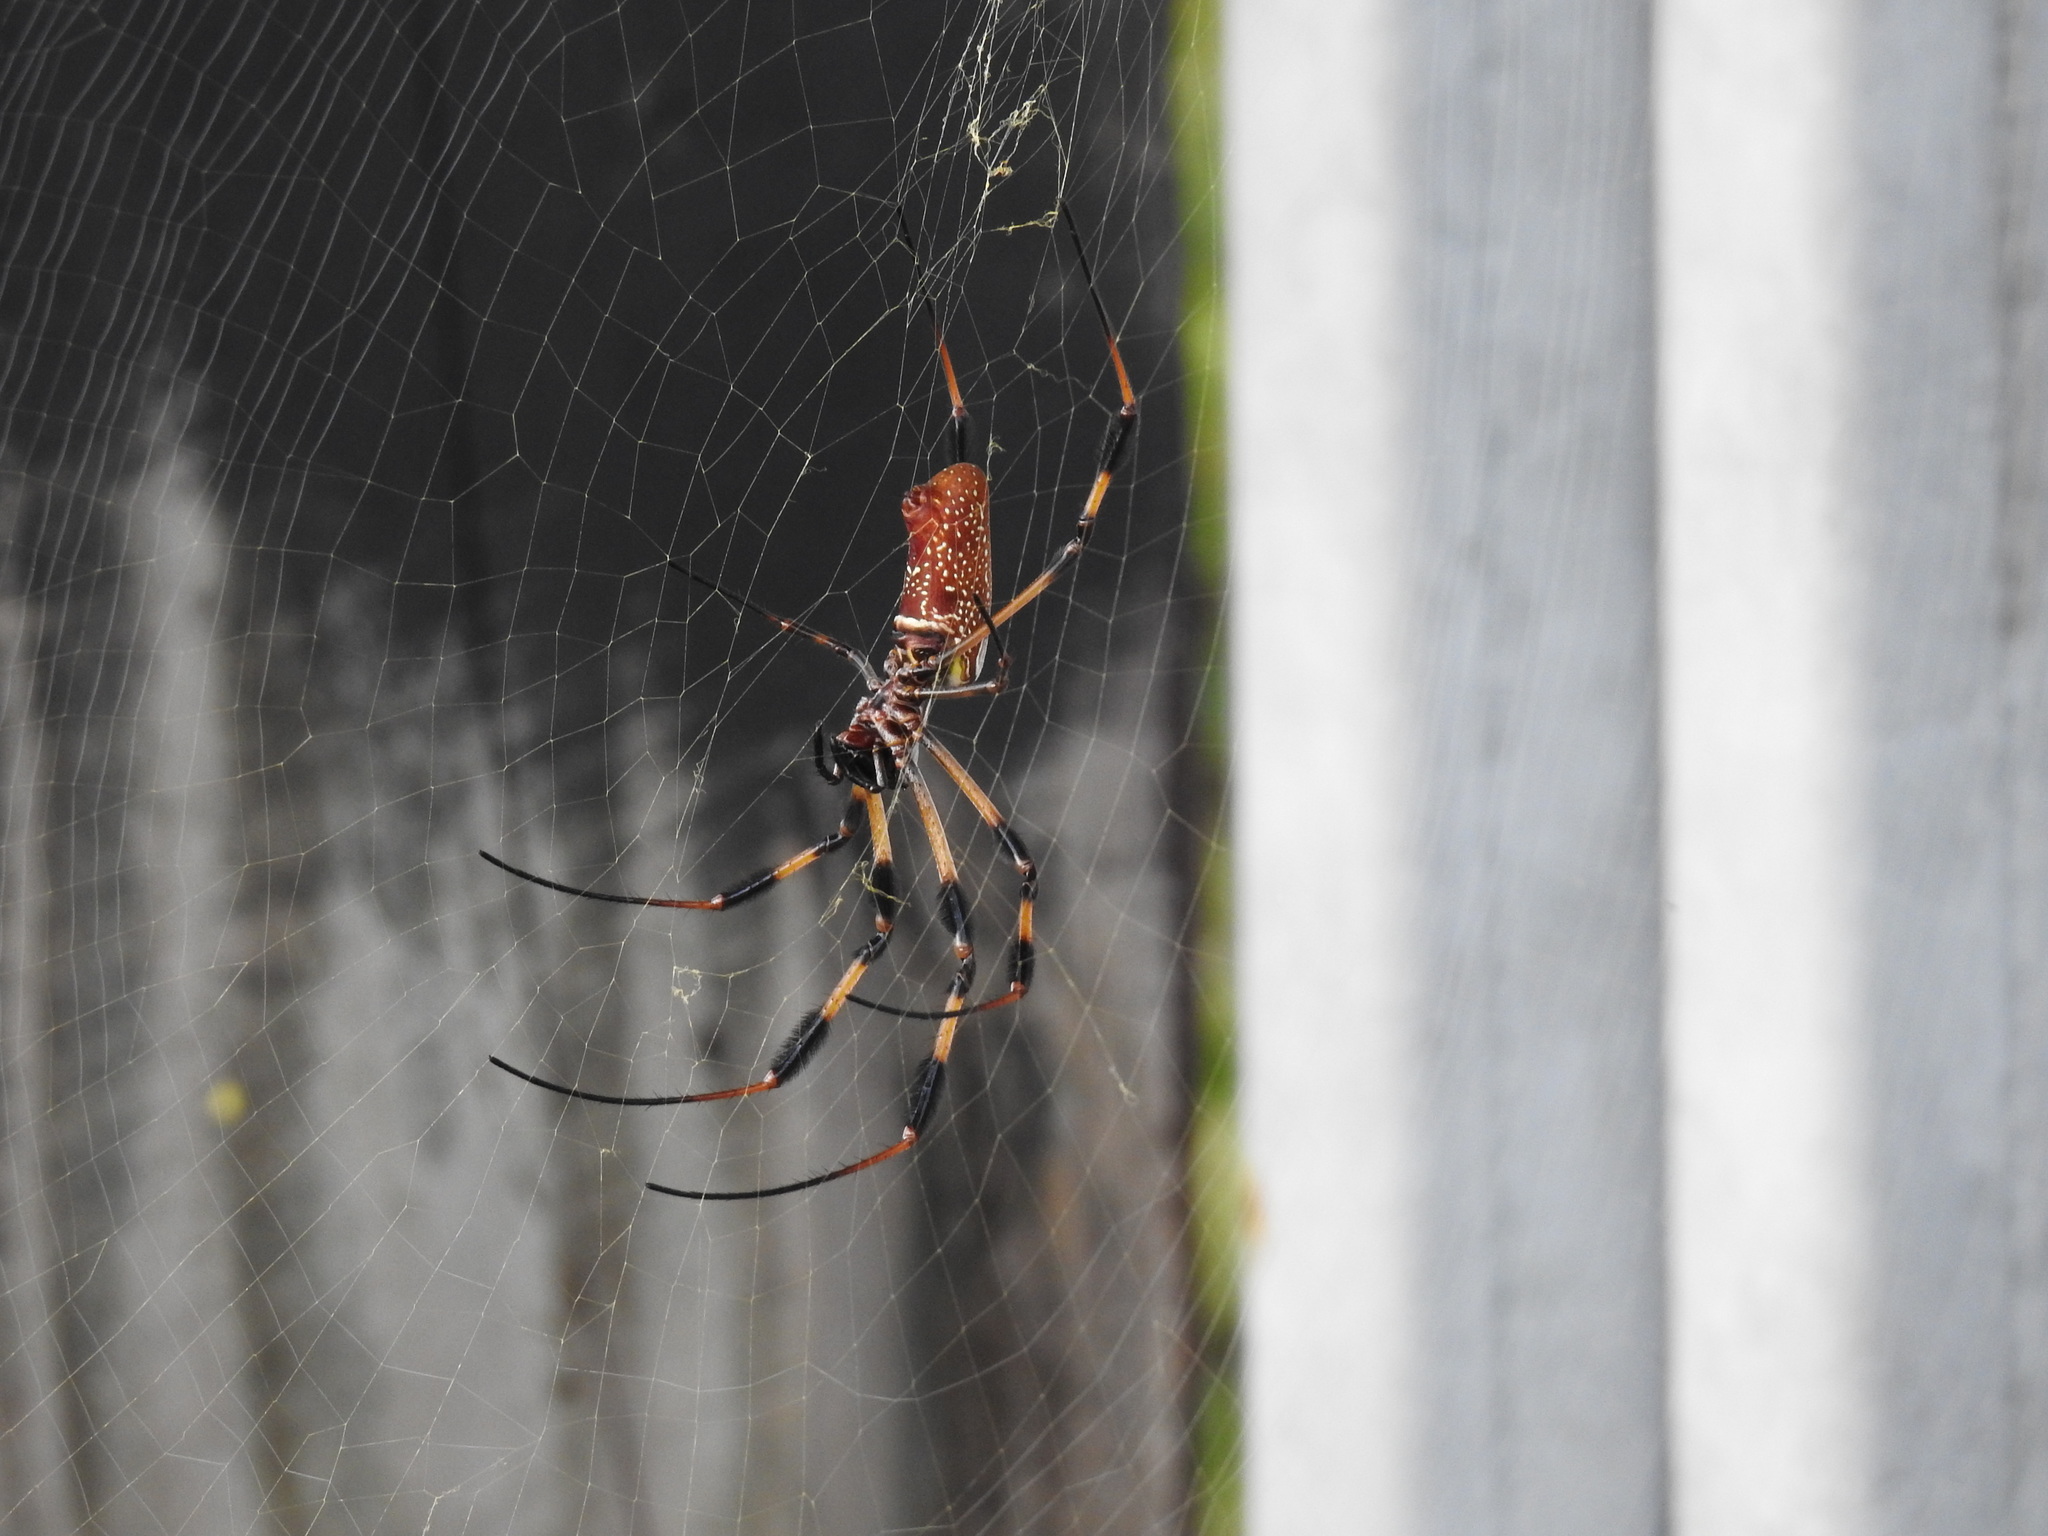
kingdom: Animalia
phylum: Arthropoda
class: Arachnida
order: Araneae
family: Araneidae
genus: Trichonephila
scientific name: Trichonephila clavipes
